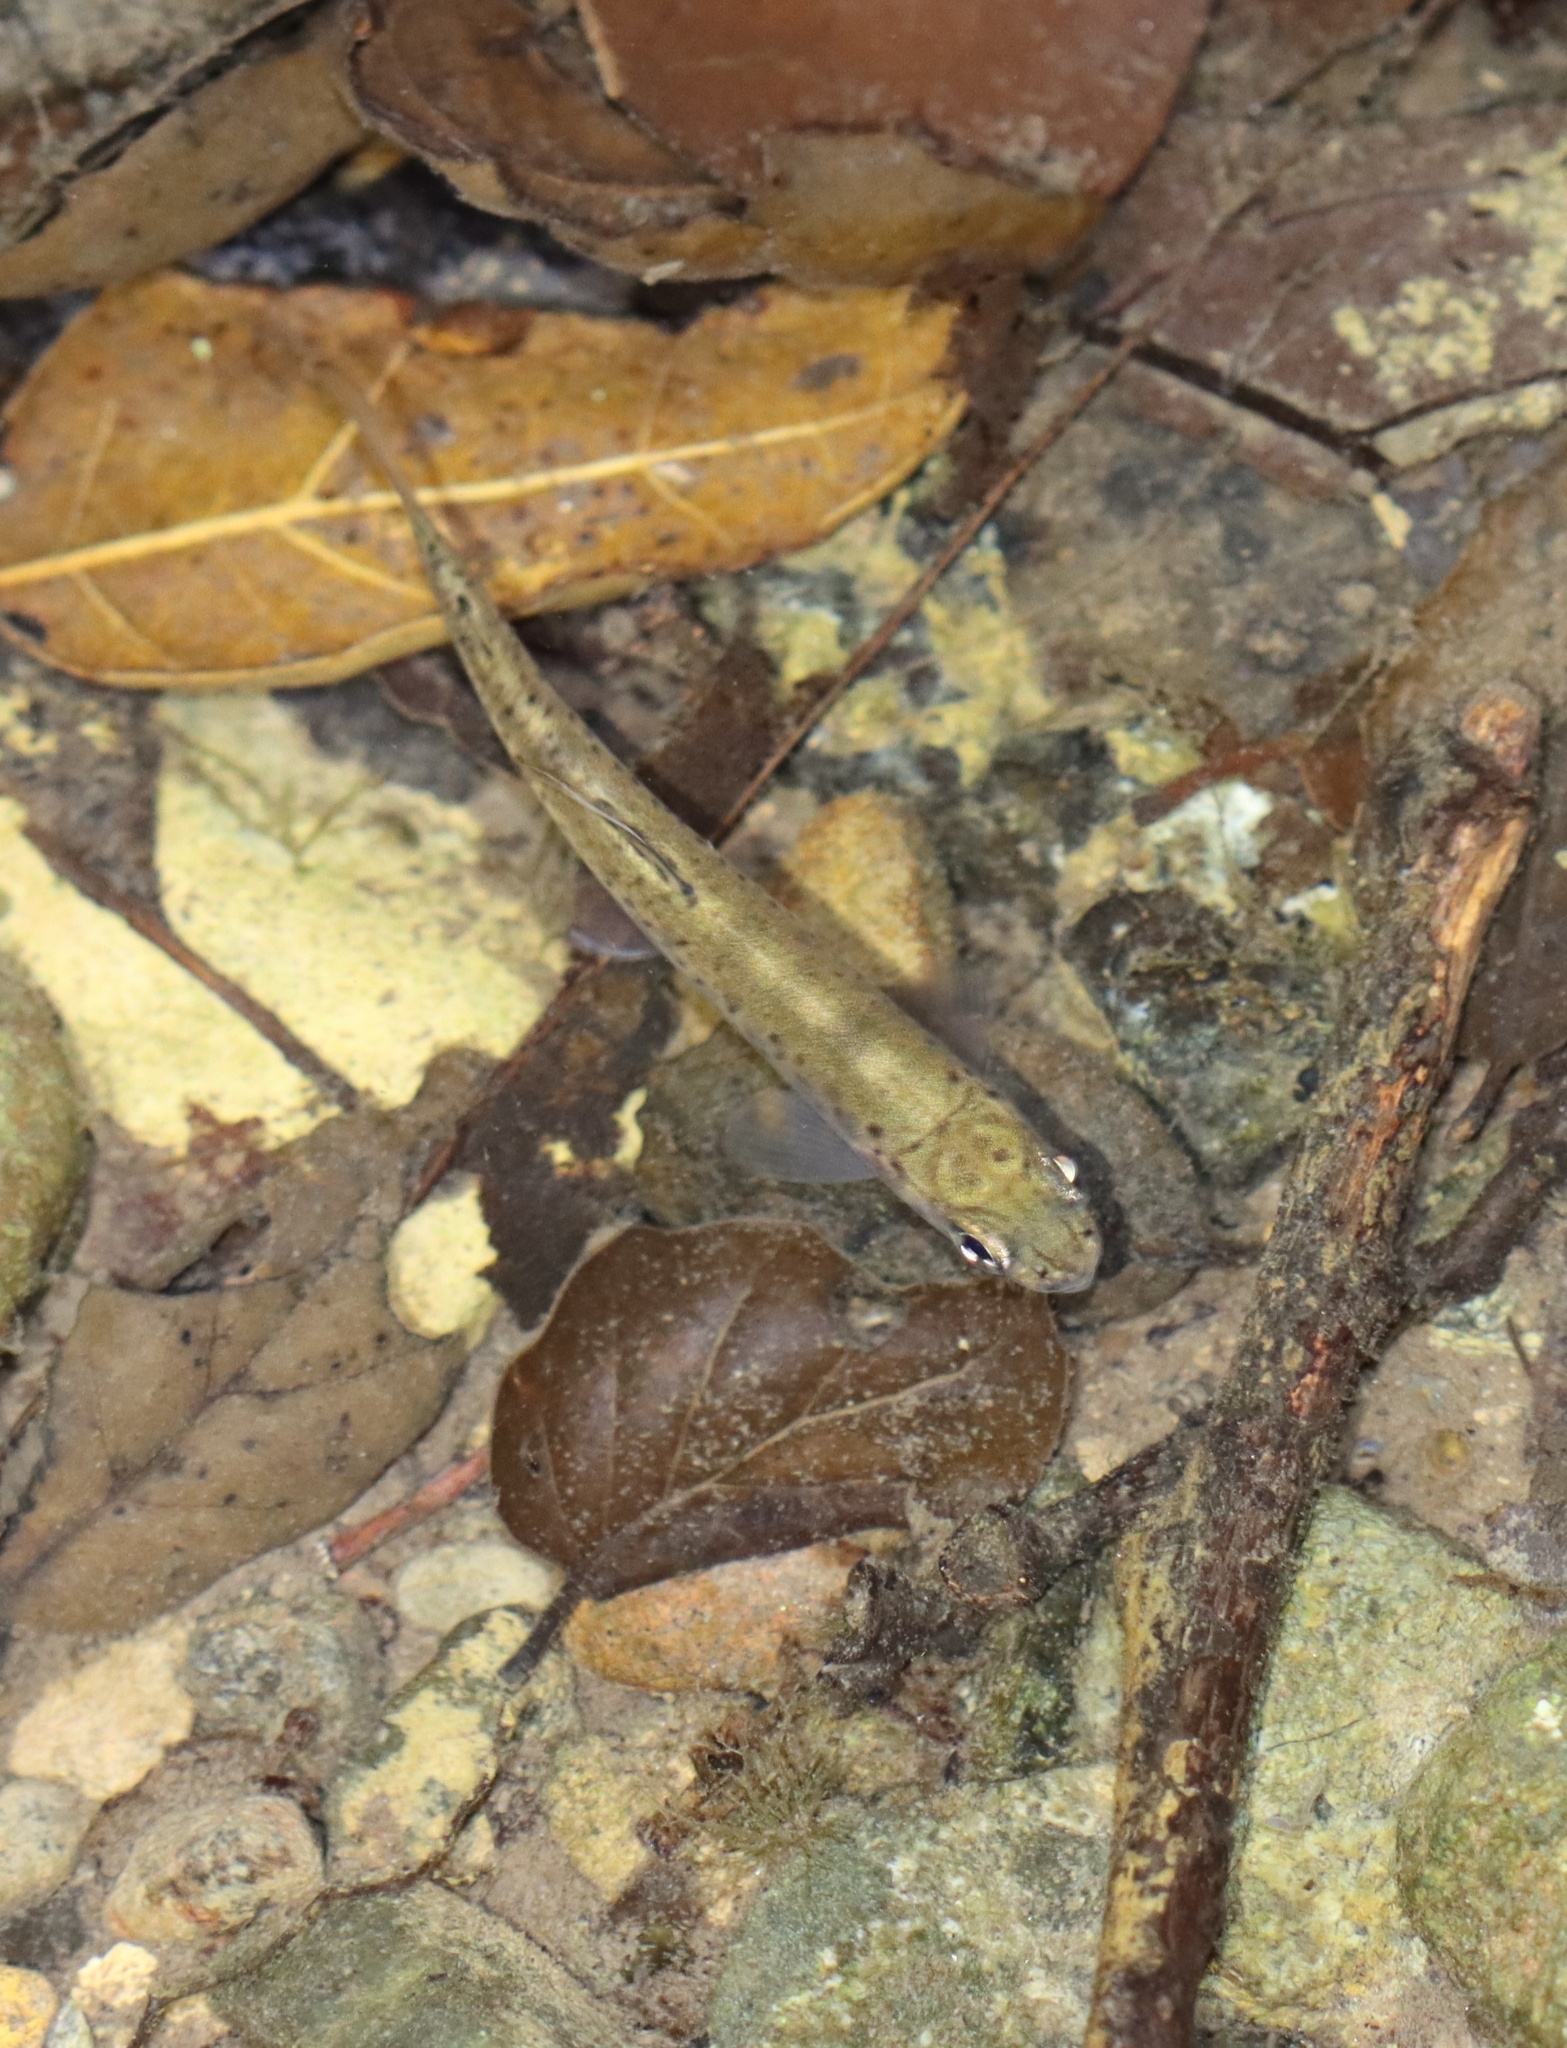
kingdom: Animalia
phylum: Chordata
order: Salmoniformes
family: Salmonidae
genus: Oncorhynchus
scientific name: Oncorhynchus mykiss
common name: Rainbow trout
